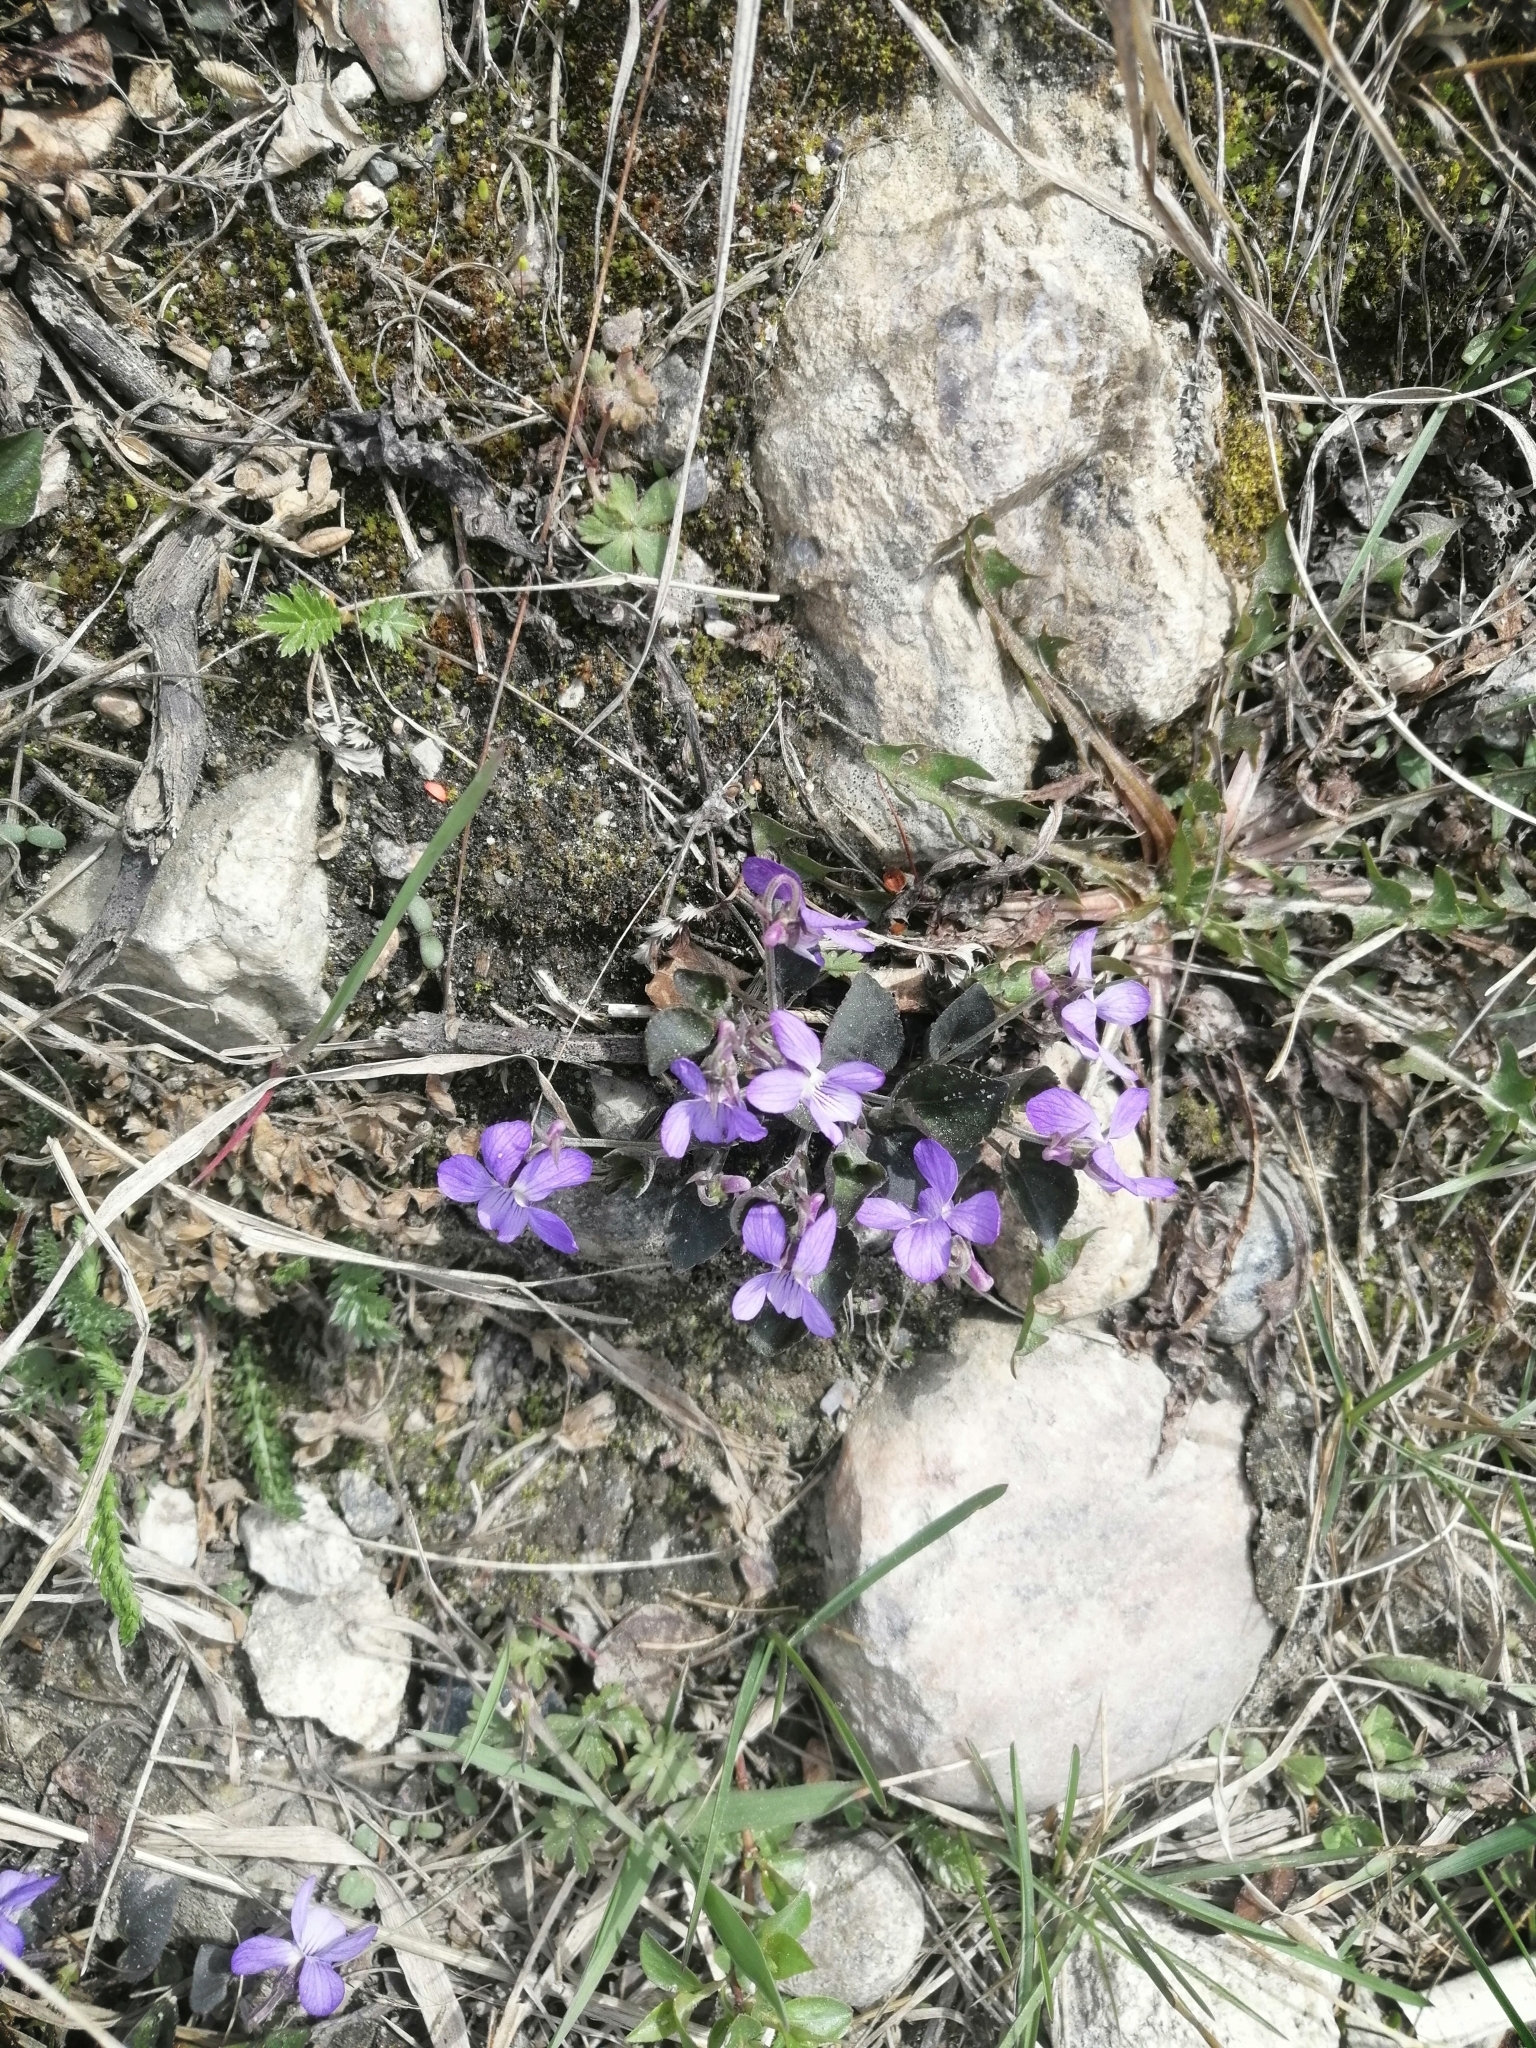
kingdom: Plantae
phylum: Tracheophyta
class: Magnoliopsida
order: Malpighiales
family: Violaceae
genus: Viola
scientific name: Viola rupestris
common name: Teesdale violet
